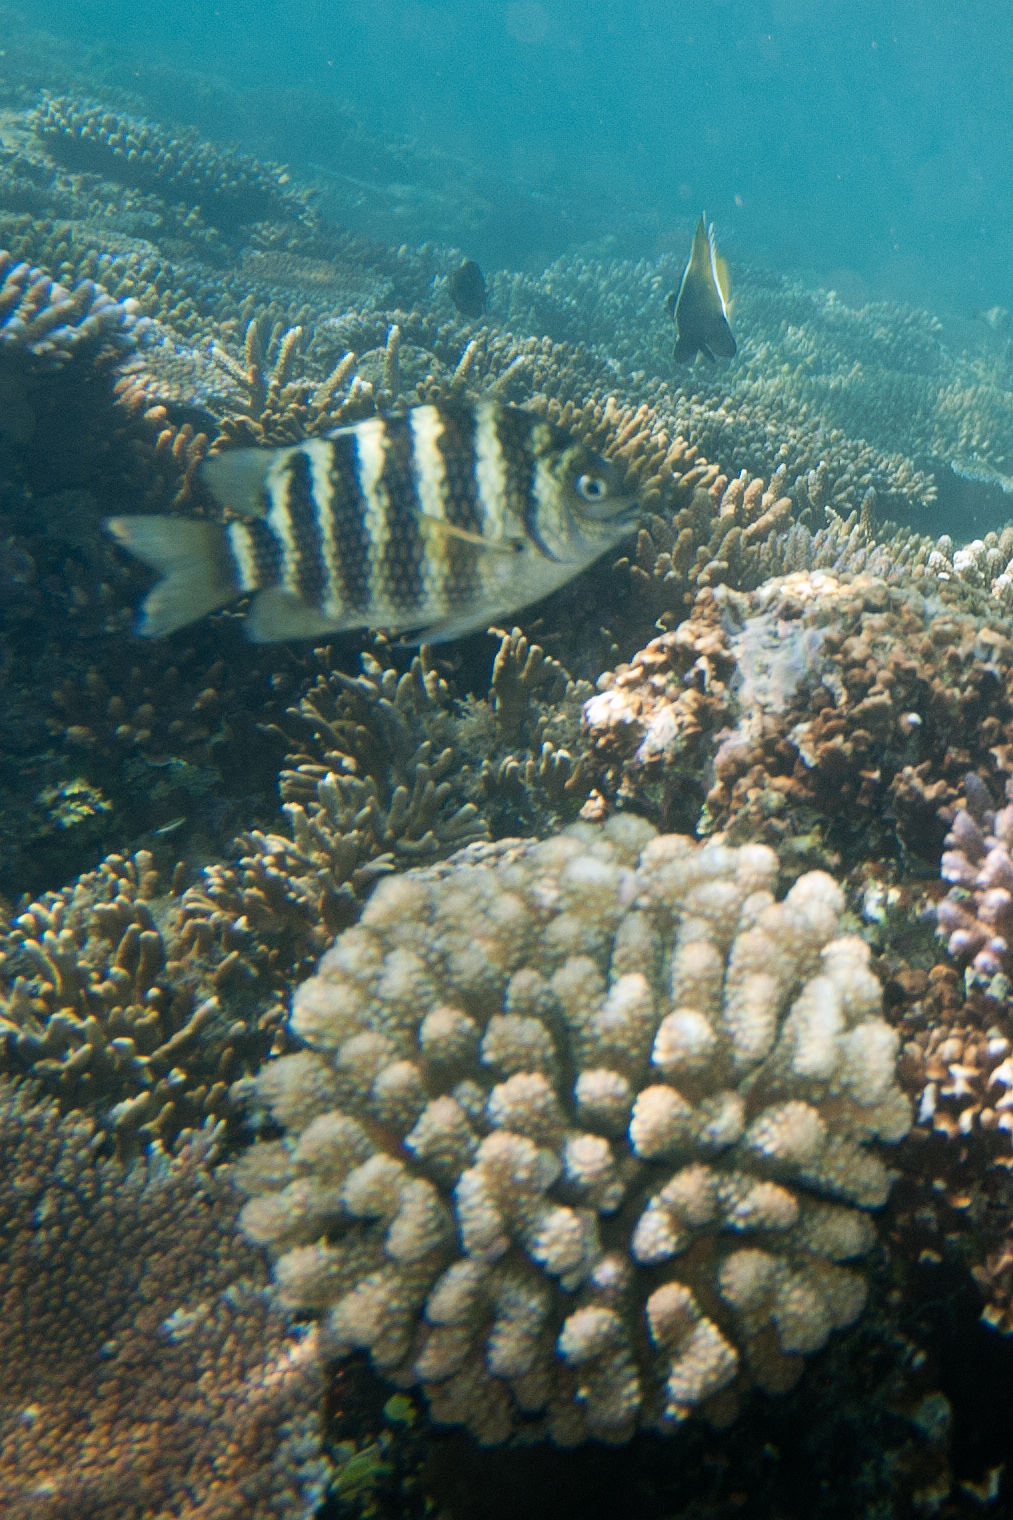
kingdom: Animalia
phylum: Chordata
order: Perciformes
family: Pomacentridae
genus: Abudefduf
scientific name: Abudefduf septemfasciatus
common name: Banded sergeant
